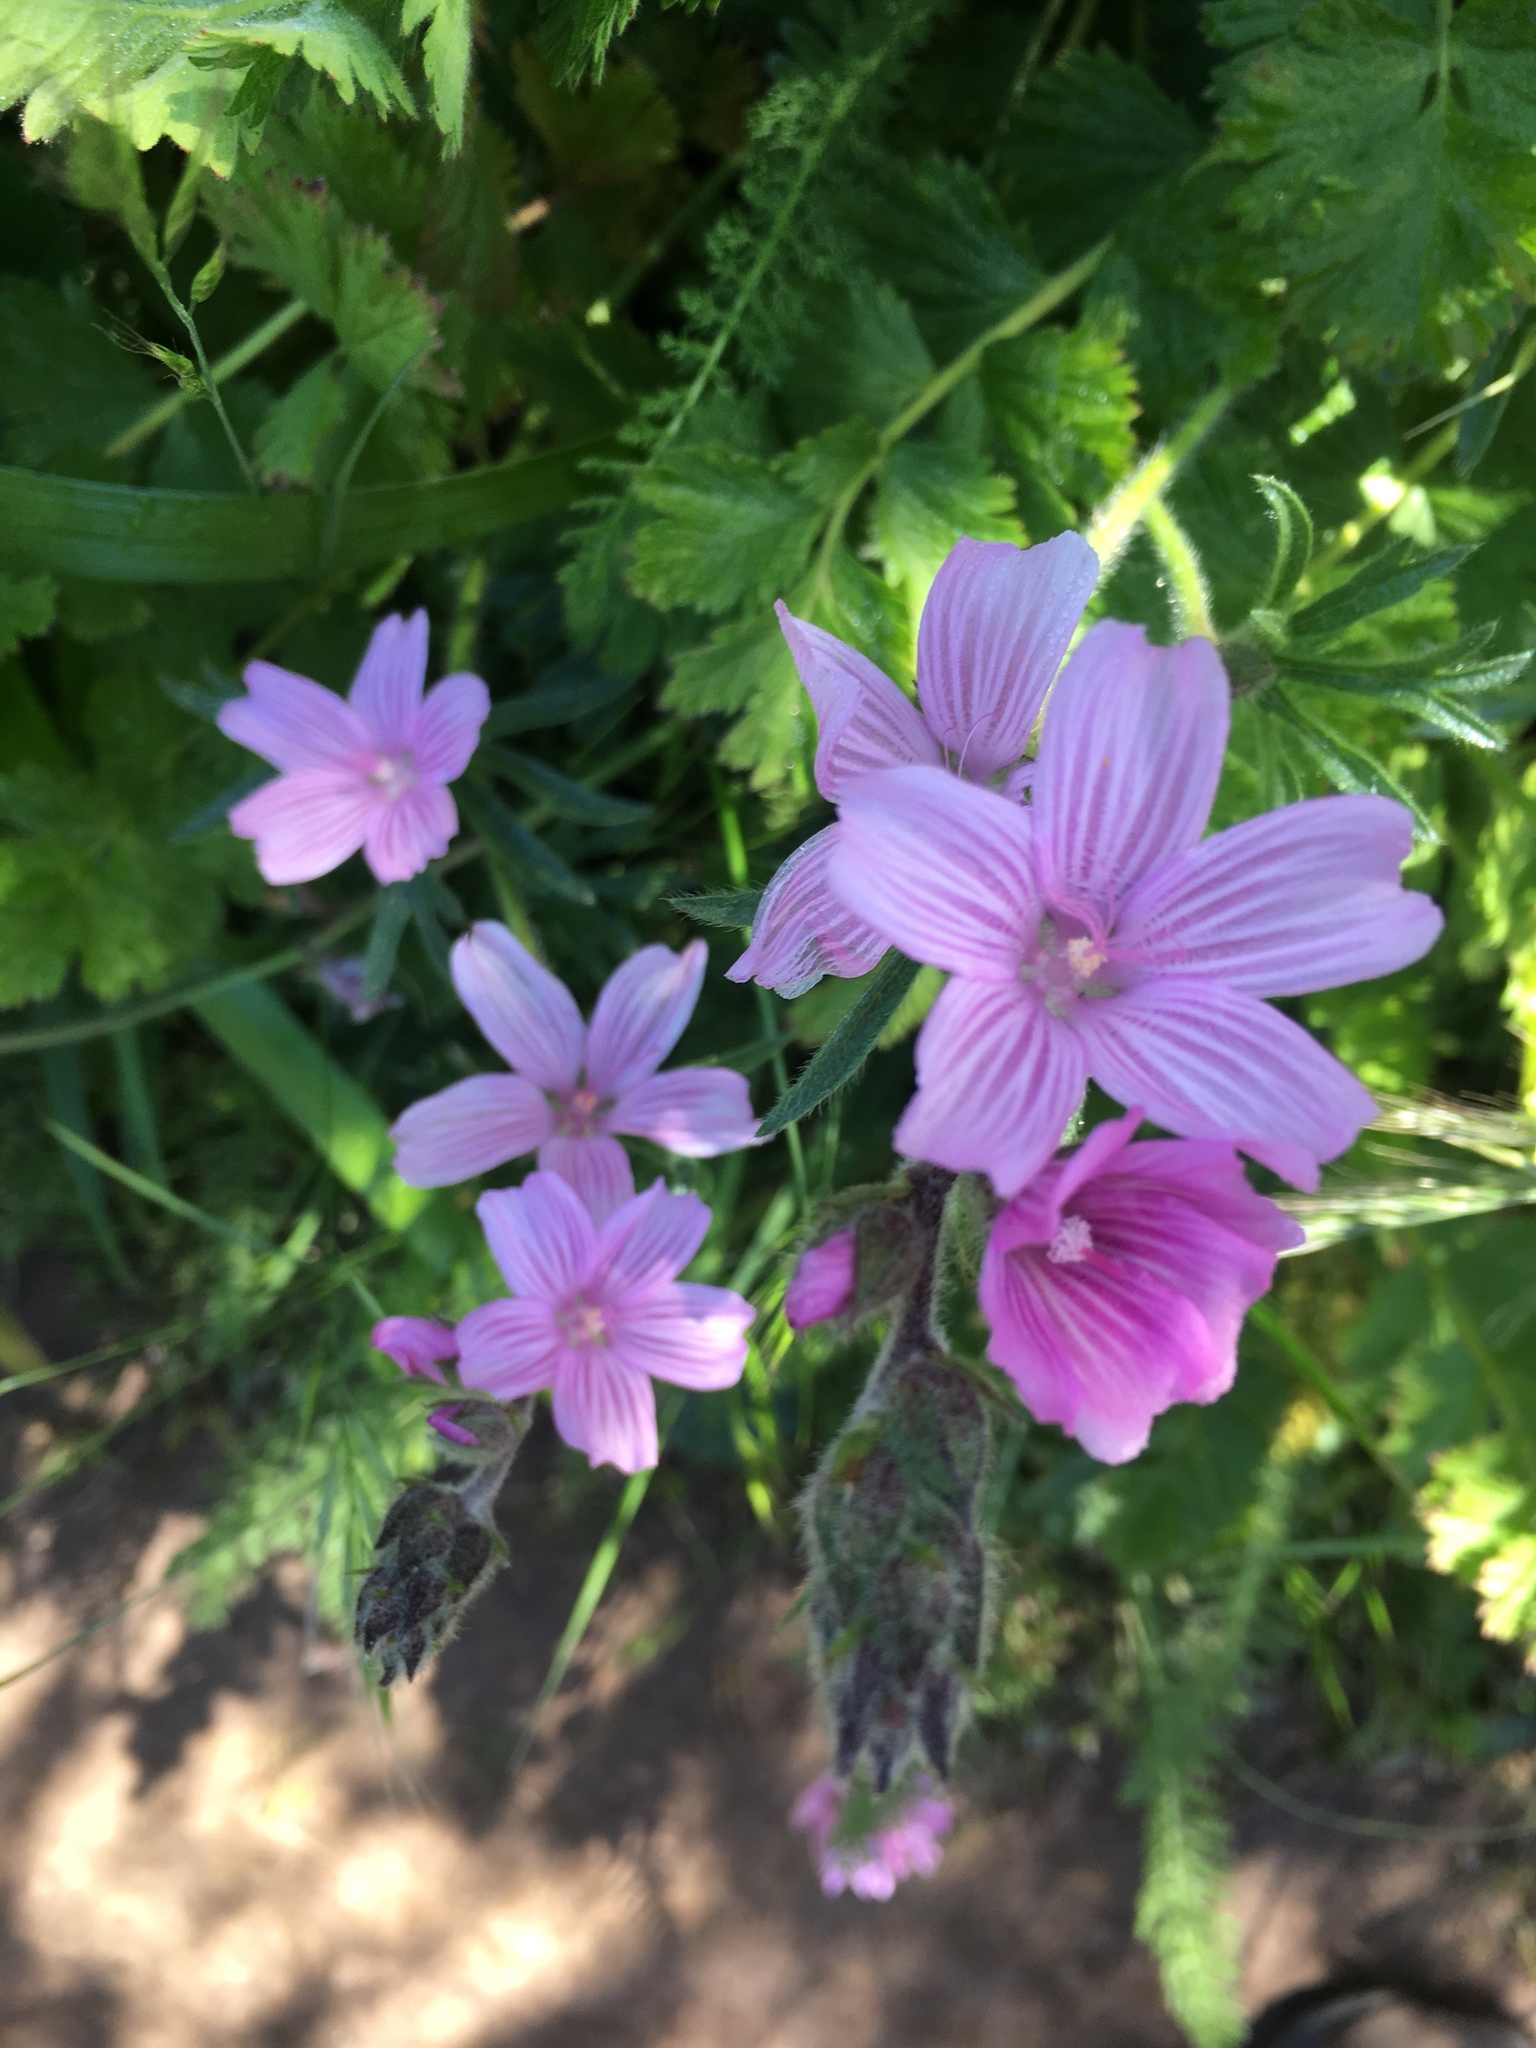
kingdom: Plantae
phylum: Tracheophyta
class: Magnoliopsida
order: Malvales
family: Malvaceae
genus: Sidalcea
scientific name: Sidalcea malviflora
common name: Greek mallow
